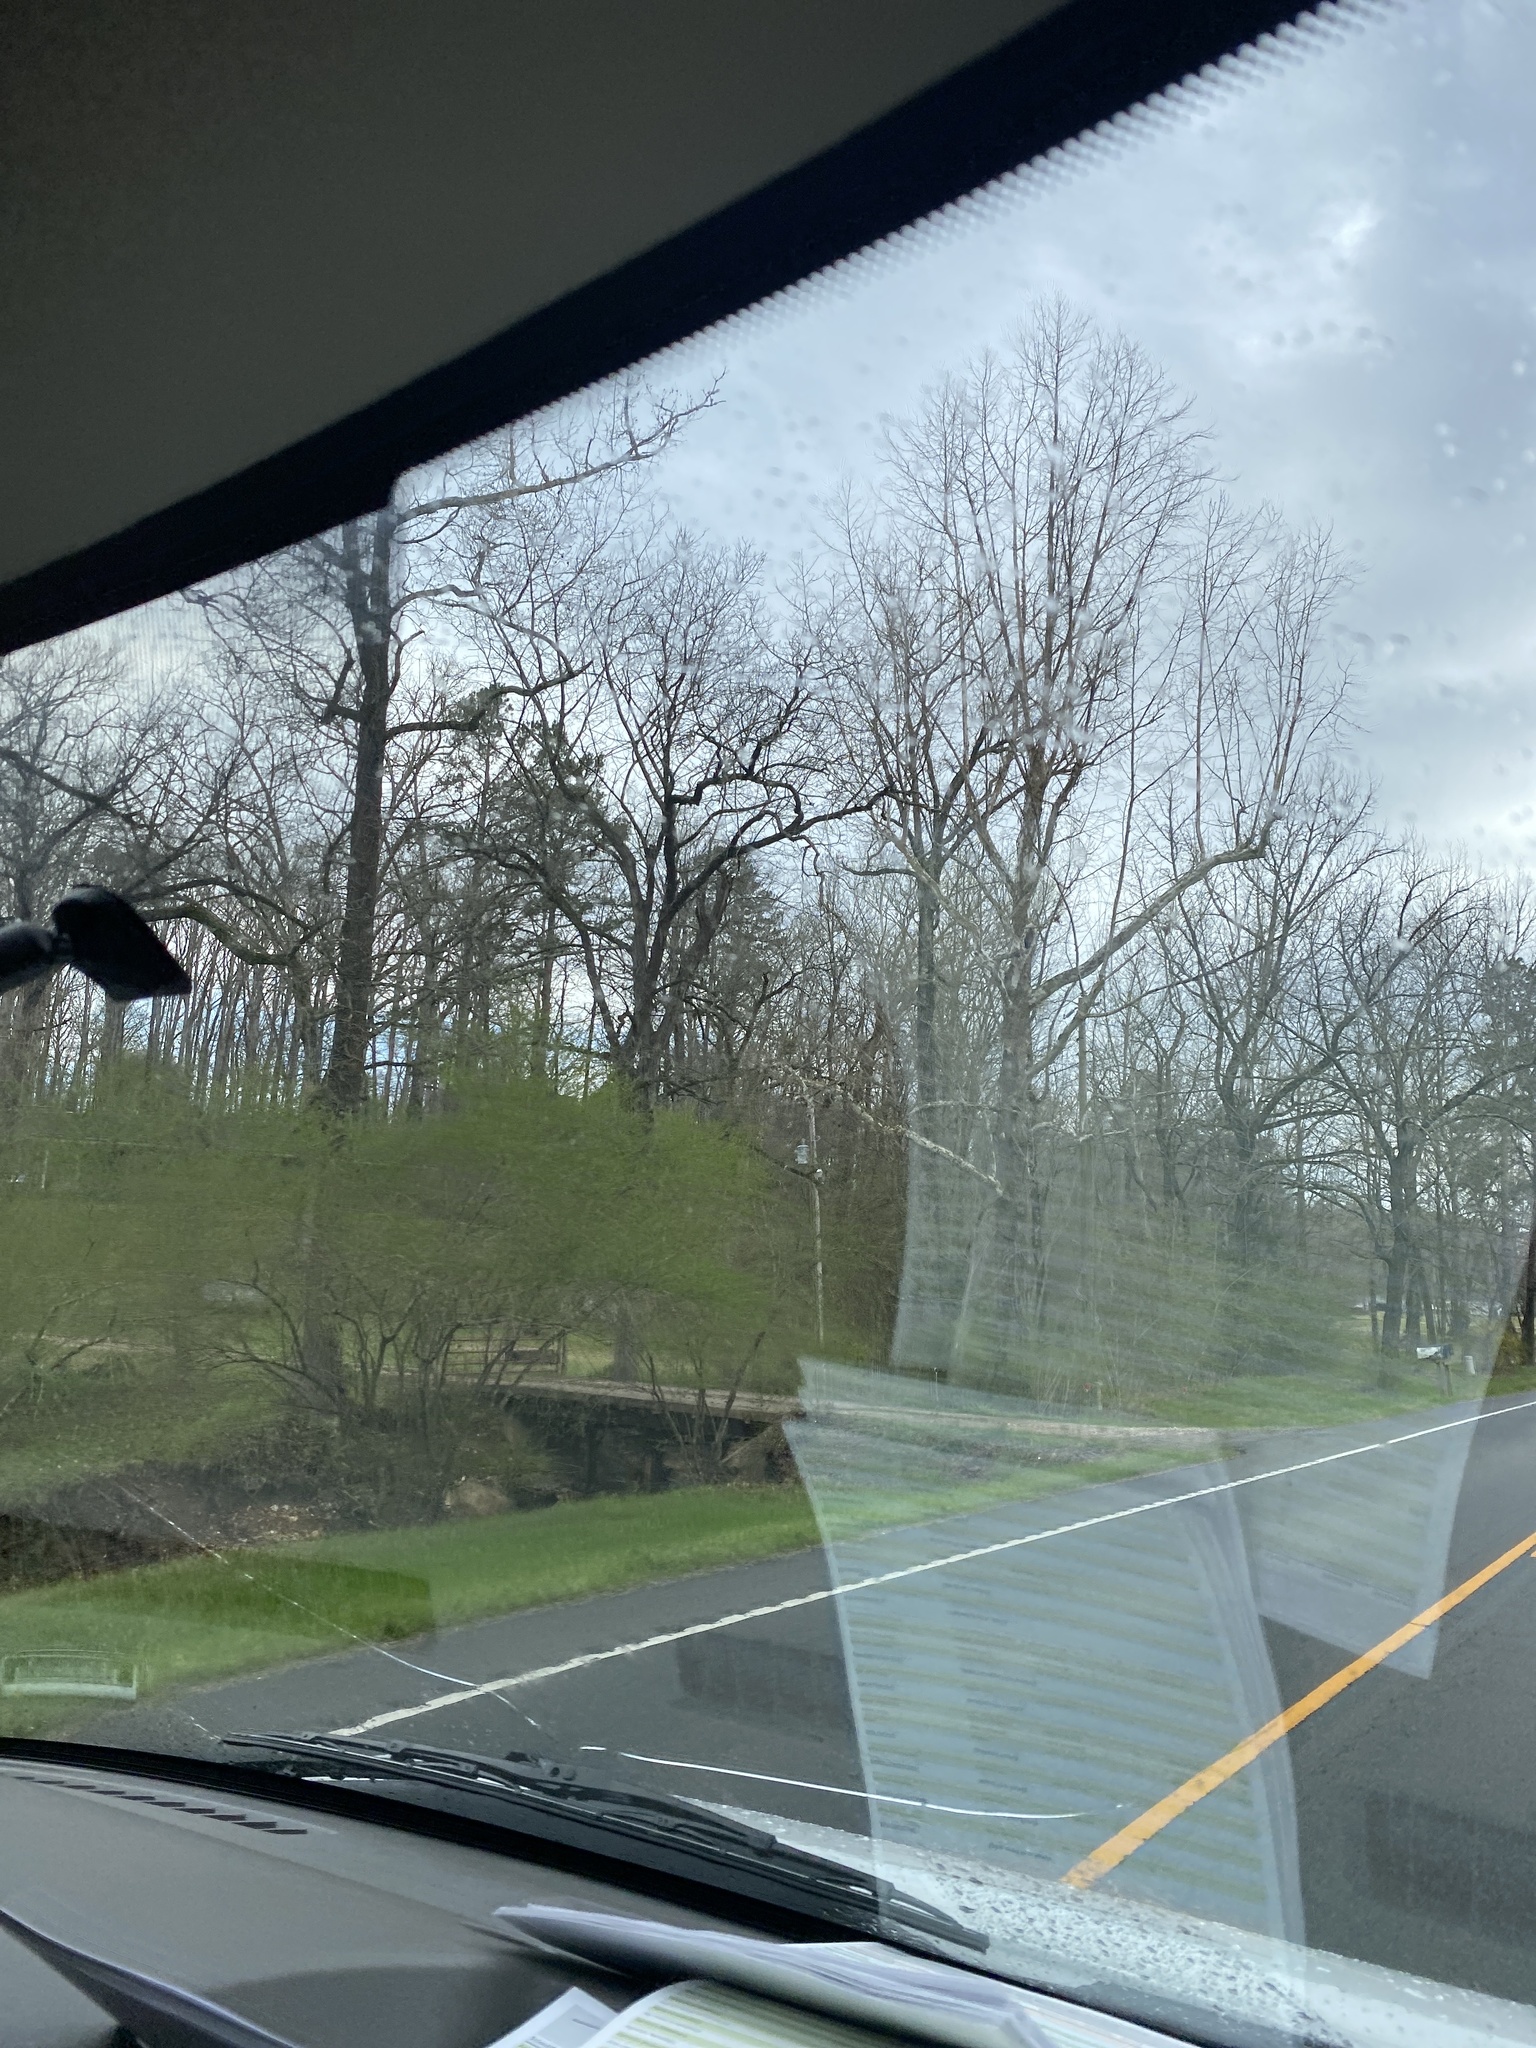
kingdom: Plantae
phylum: Tracheophyta
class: Magnoliopsida
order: Proteales
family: Platanaceae
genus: Platanus
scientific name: Platanus occidentalis
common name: American sycamore
